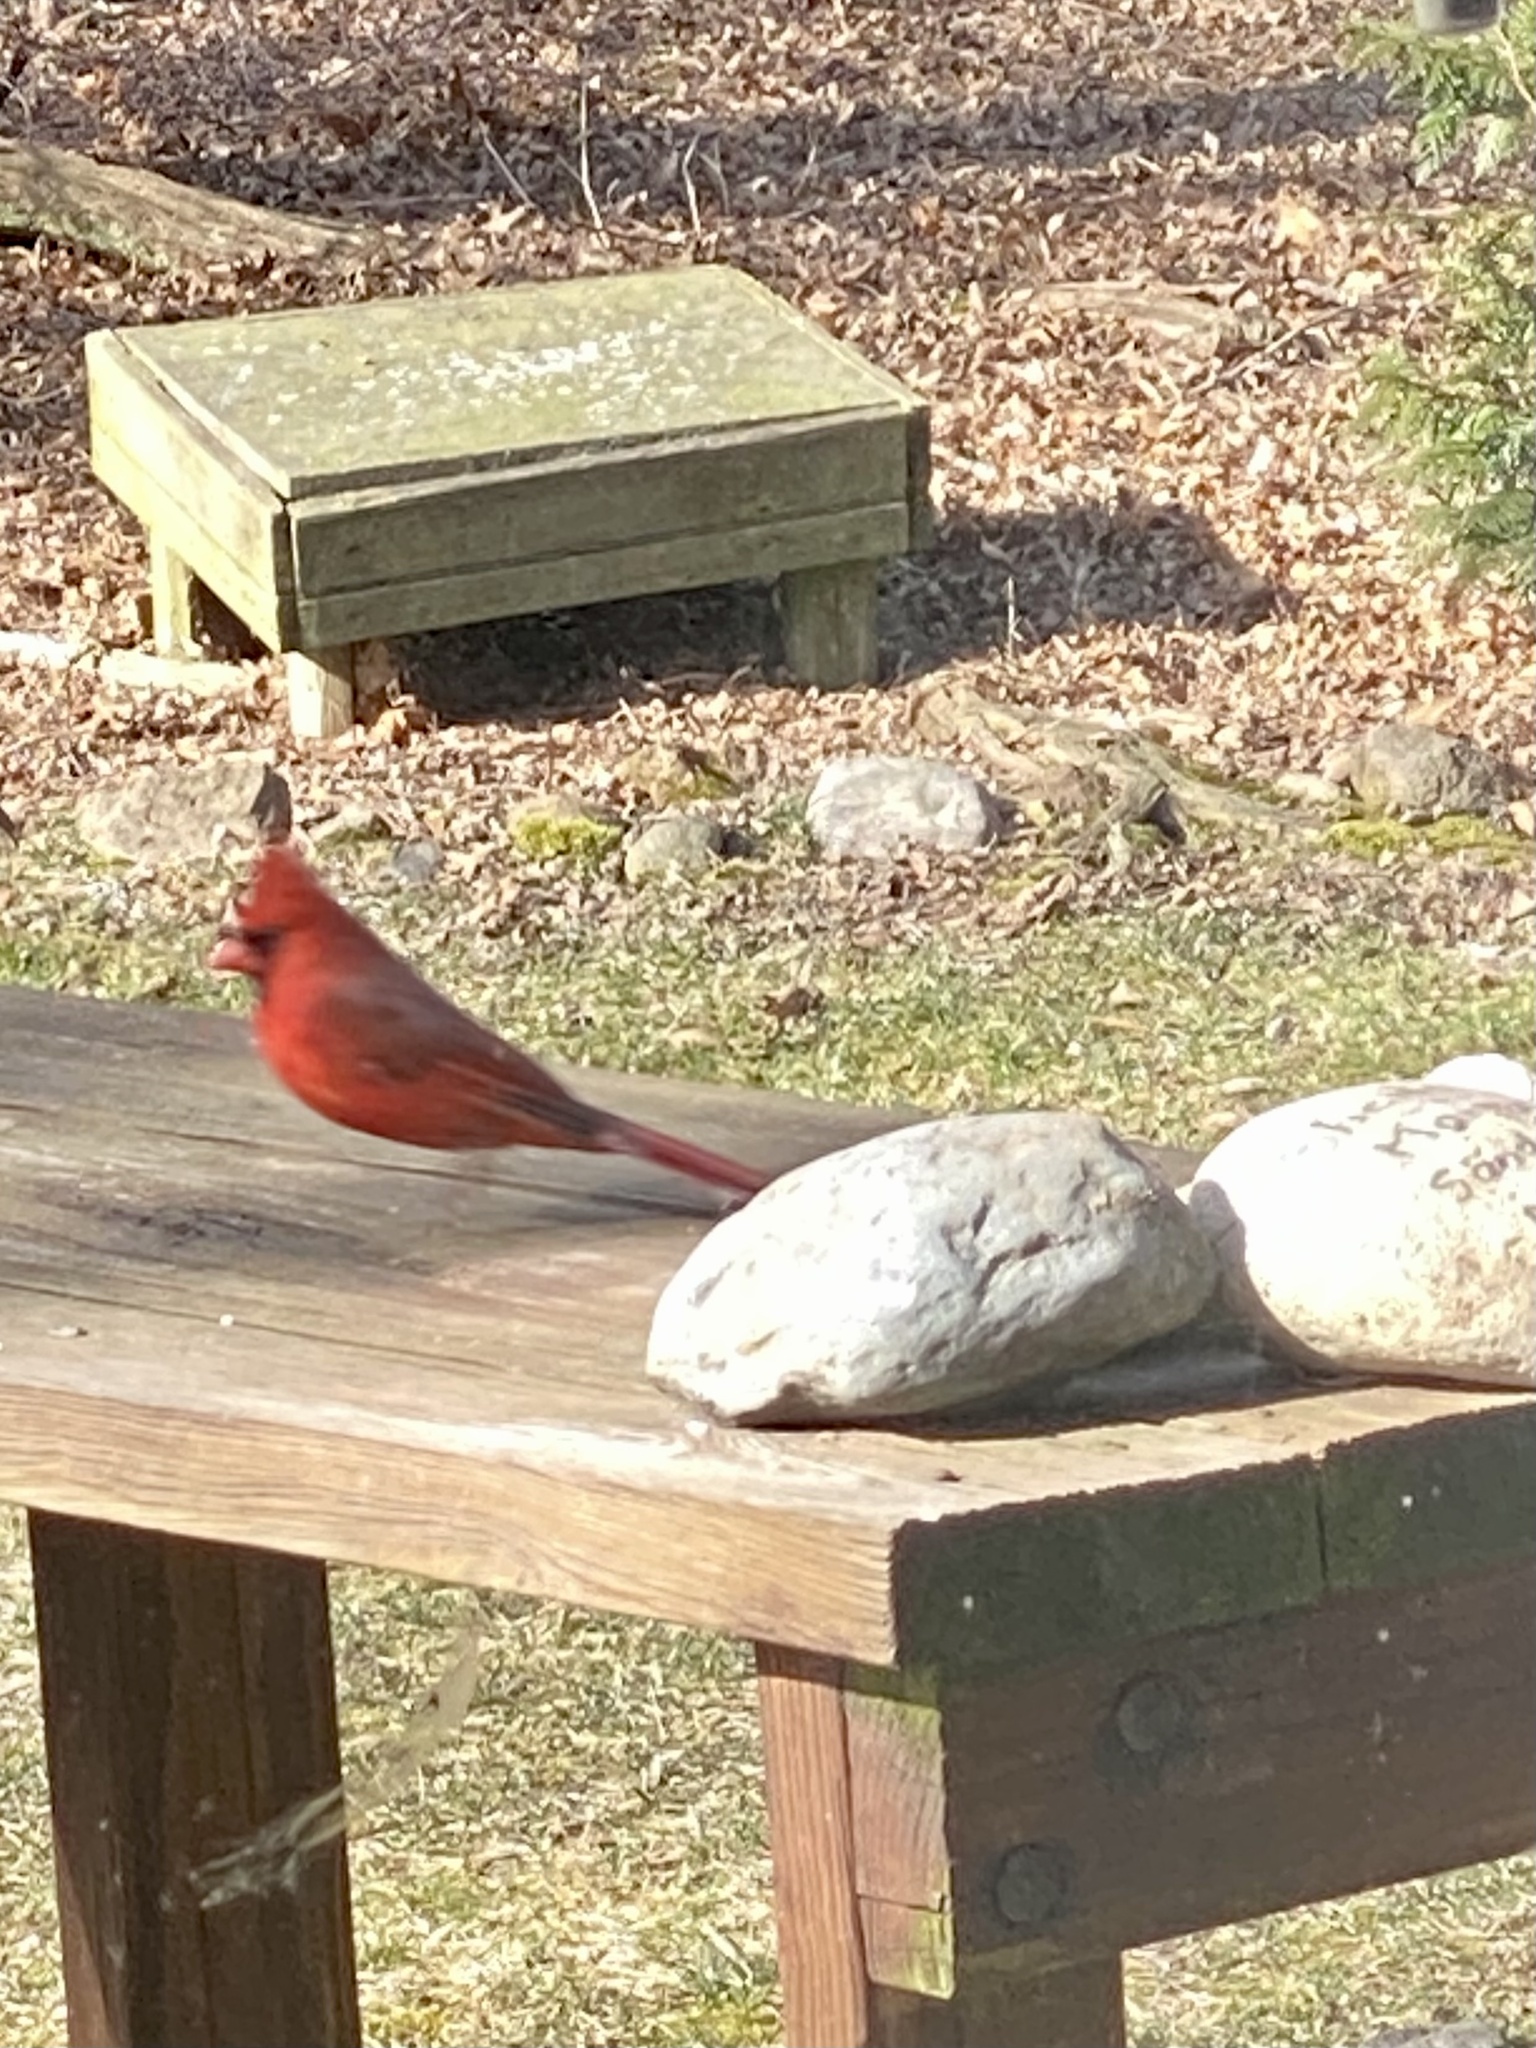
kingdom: Animalia
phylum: Chordata
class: Aves
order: Passeriformes
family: Cardinalidae
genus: Cardinalis
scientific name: Cardinalis cardinalis
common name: Northern cardinal
